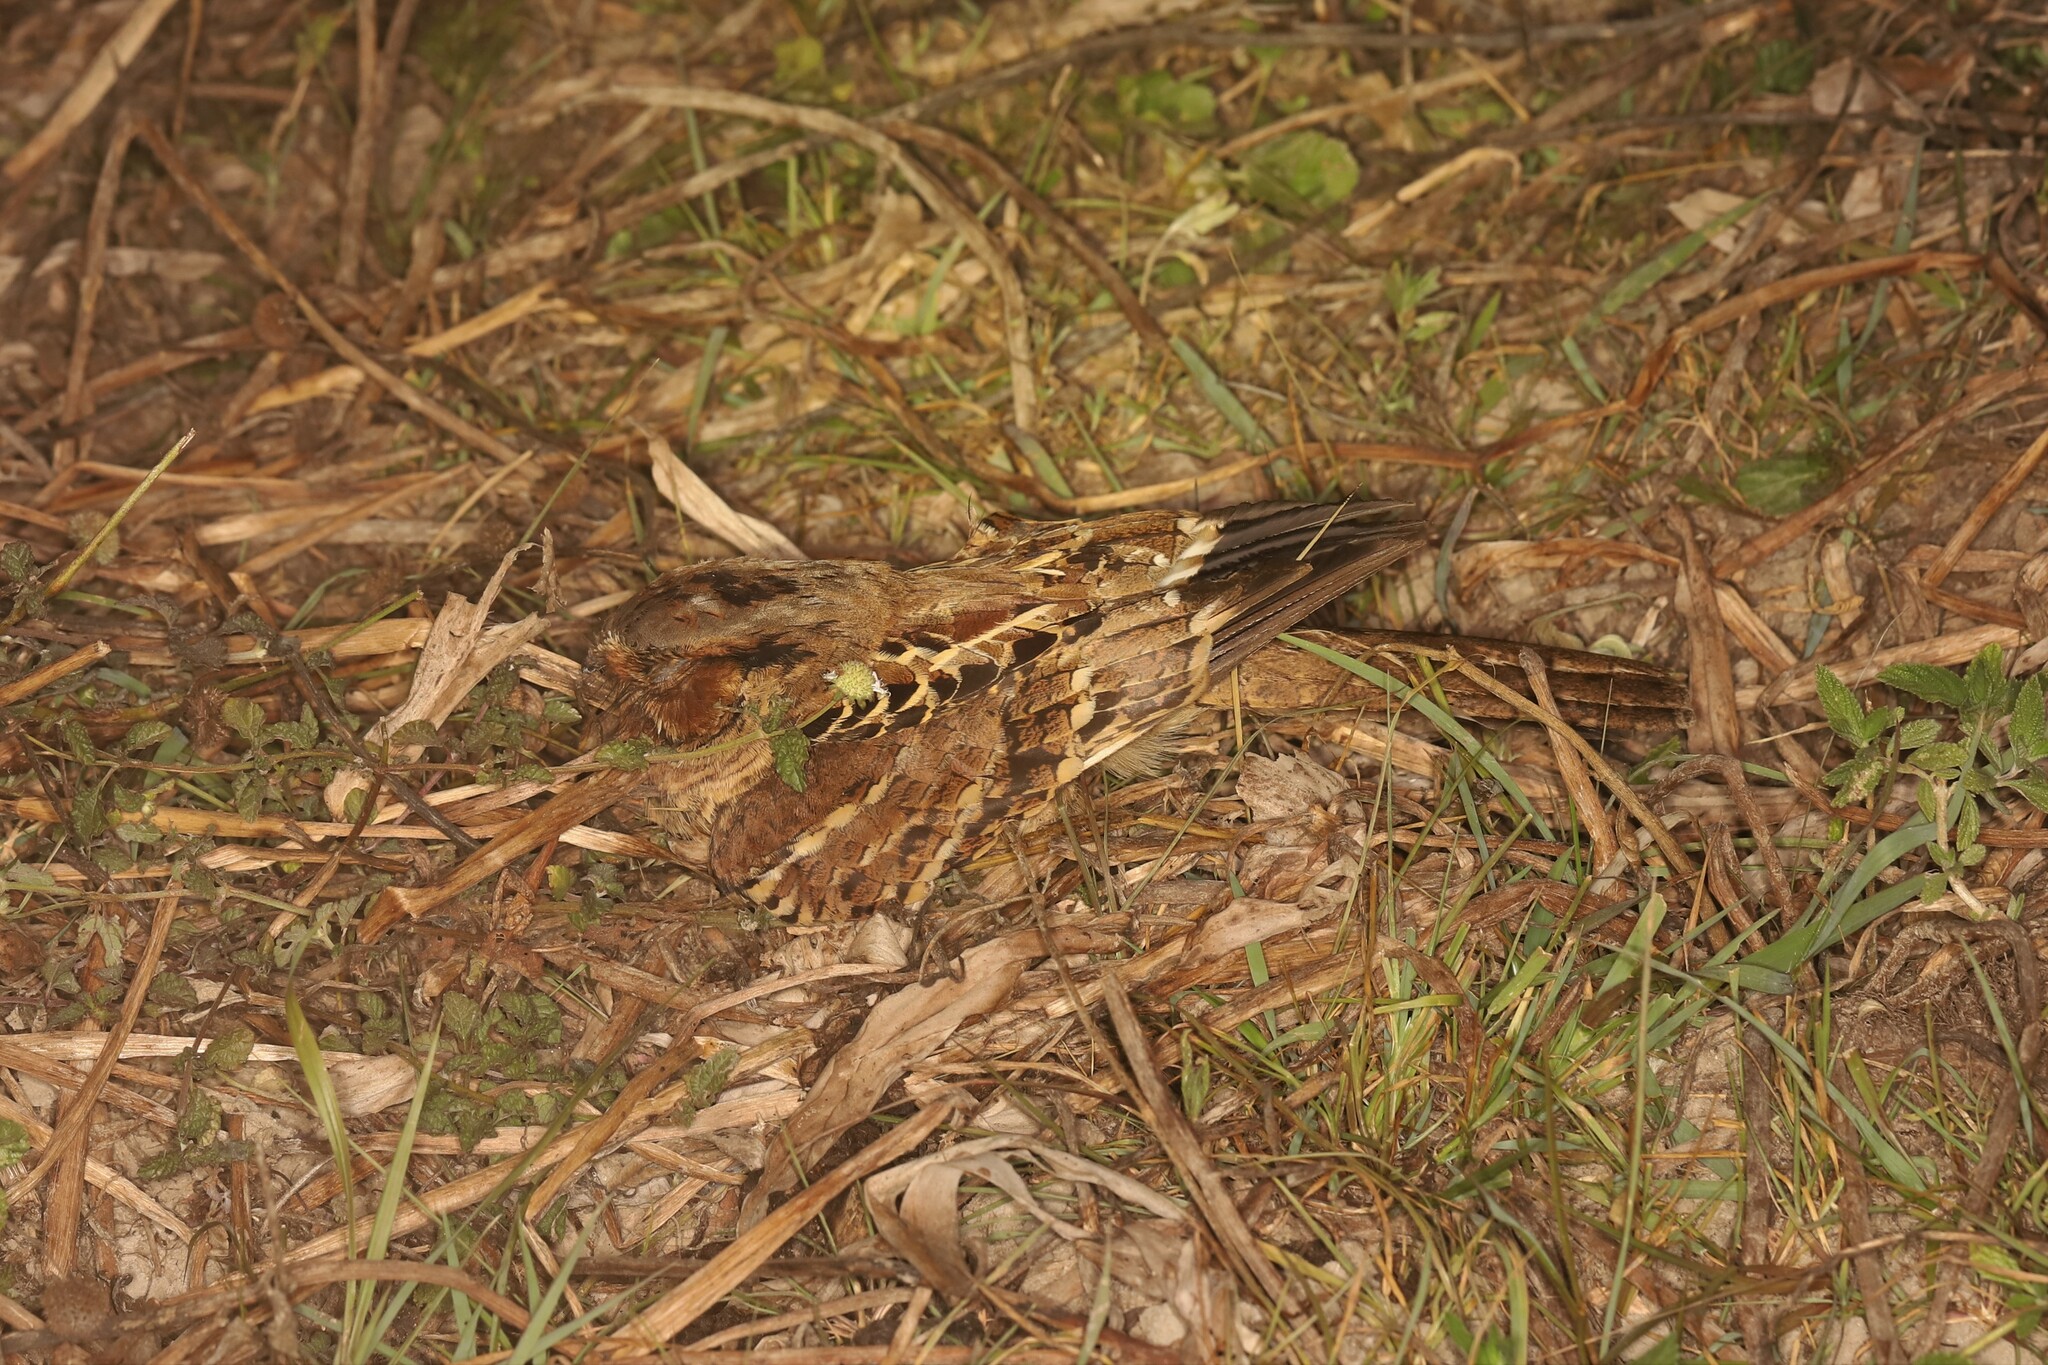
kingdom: Animalia
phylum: Chordata
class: Aves
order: Caprimulgiformes
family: Caprimulgidae
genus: Nyctidromus
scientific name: Nyctidromus albicollis
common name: Pauraque
